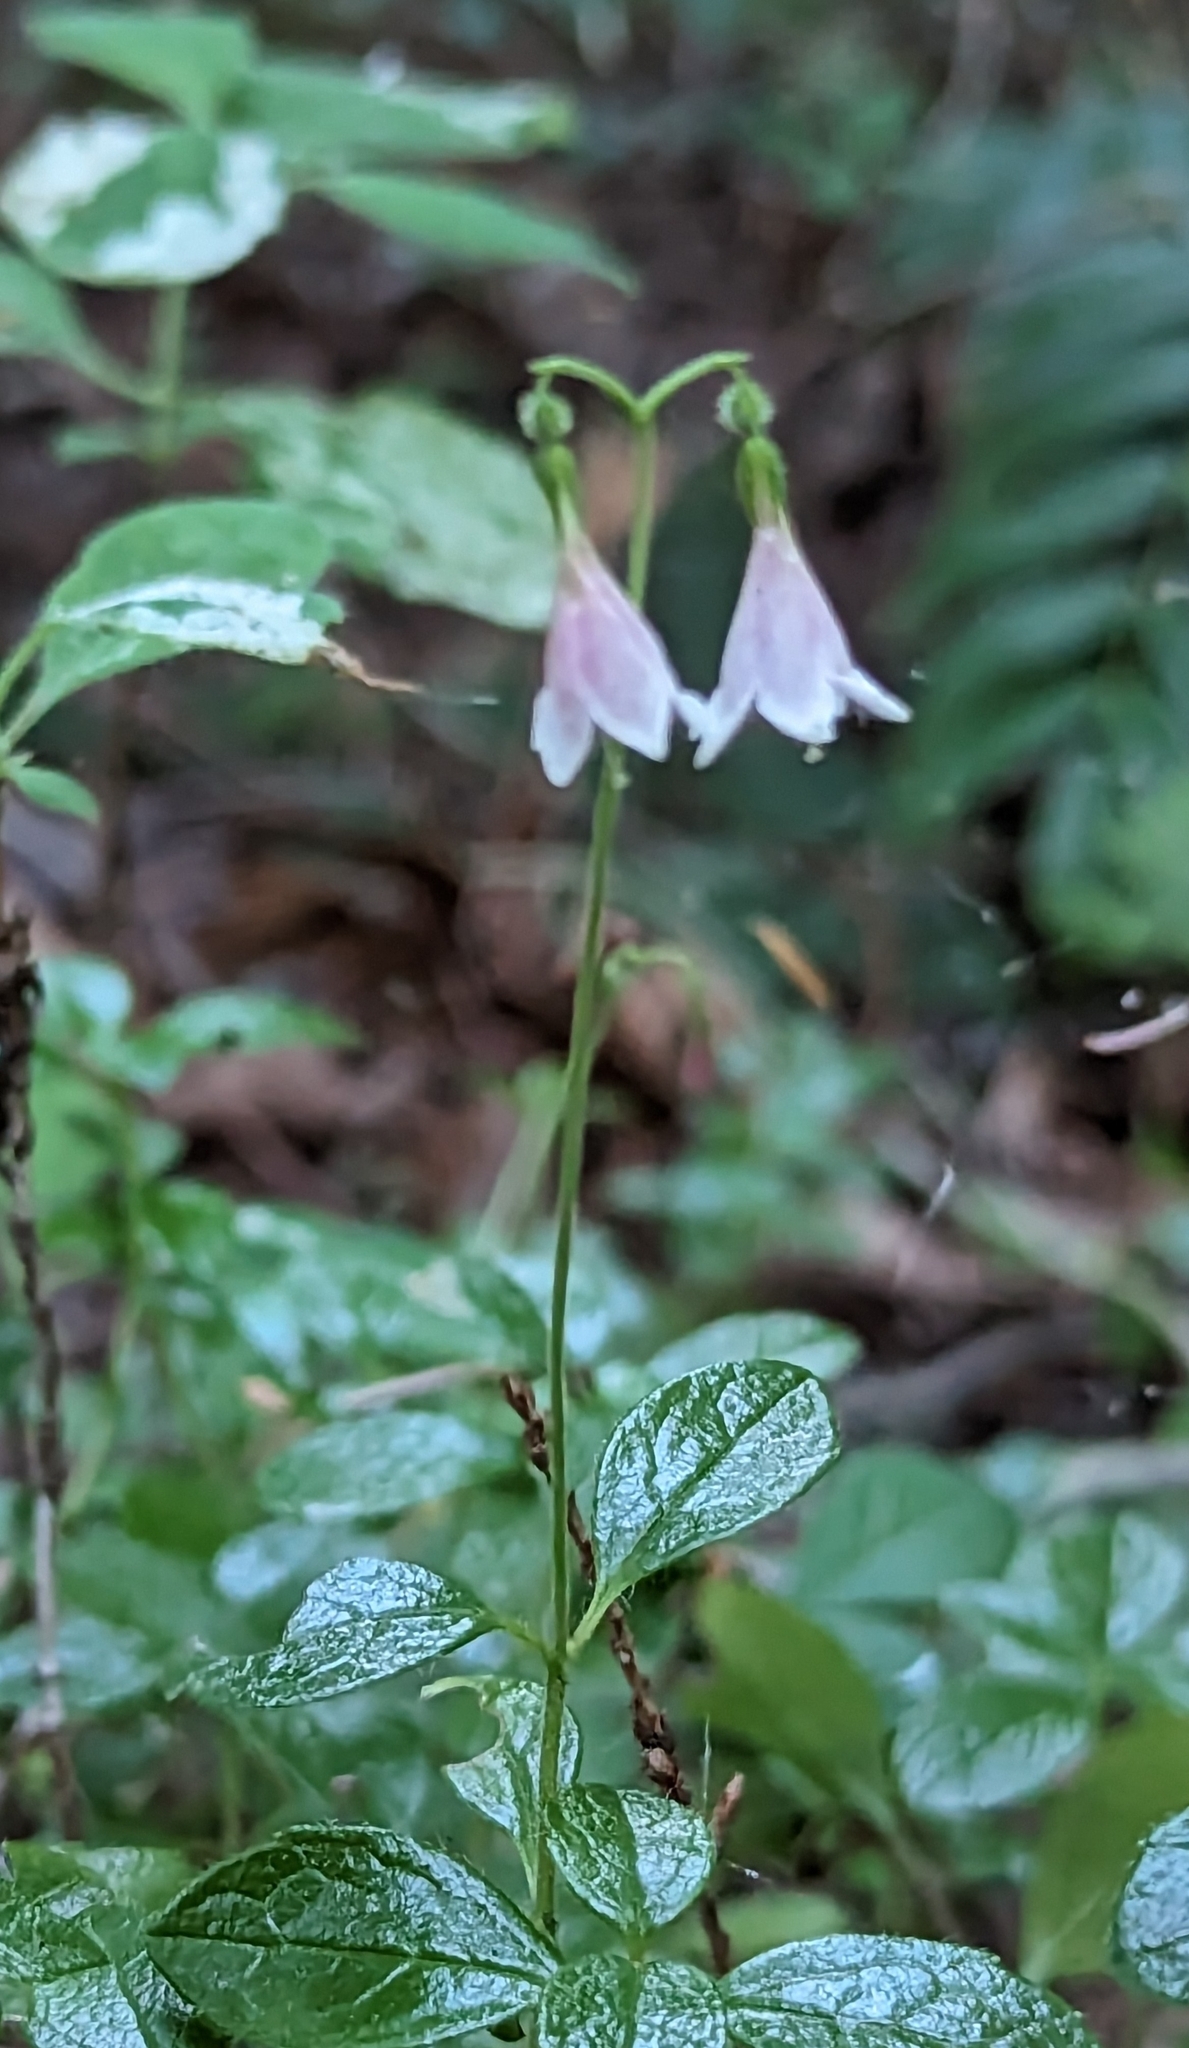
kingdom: Plantae
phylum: Tracheophyta
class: Magnoliopsida
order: Dipsacales
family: Caprifoliaceae
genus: Linnaea
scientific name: Linnaea borealis
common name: Twinflower
